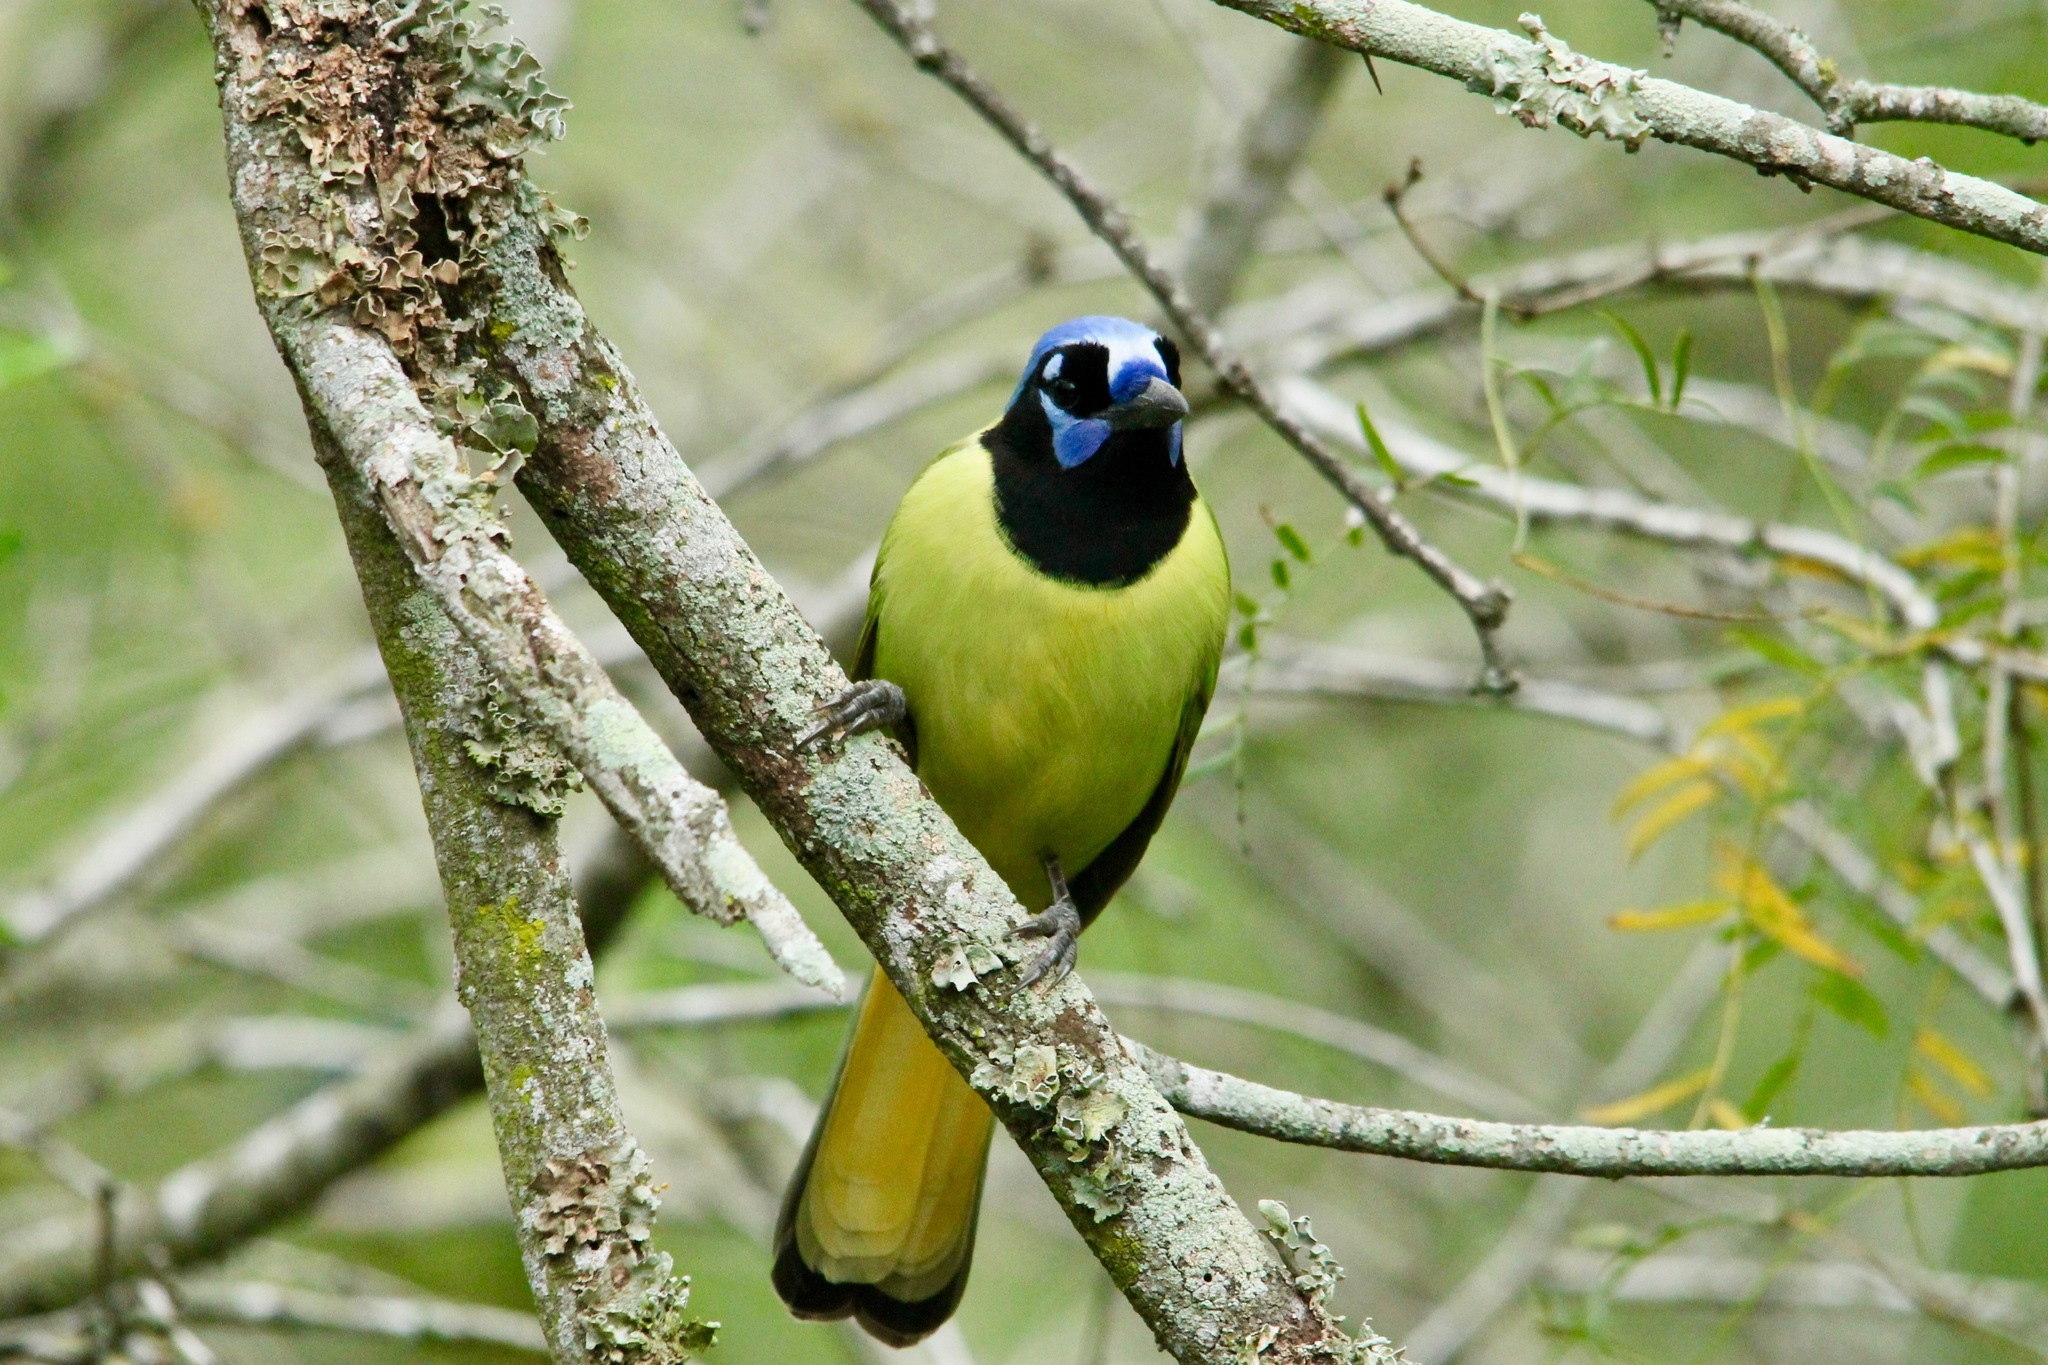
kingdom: Animalia
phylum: Chordata
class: Aves
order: Passeriformes
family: Corvidae
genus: Cyanocorax
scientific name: Cyanocorax yncas
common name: Green jay
